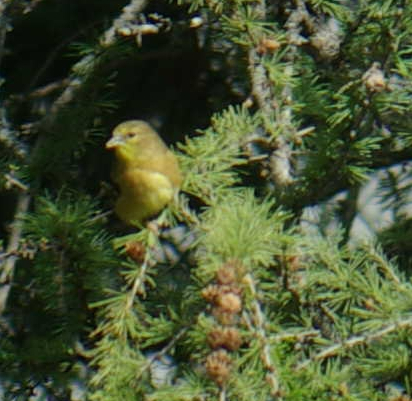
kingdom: Animalia
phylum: Chordata
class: Aves
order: Passeriformes
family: Fringillidae
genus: Spinus
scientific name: Spinus tristis
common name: American goldfinch
